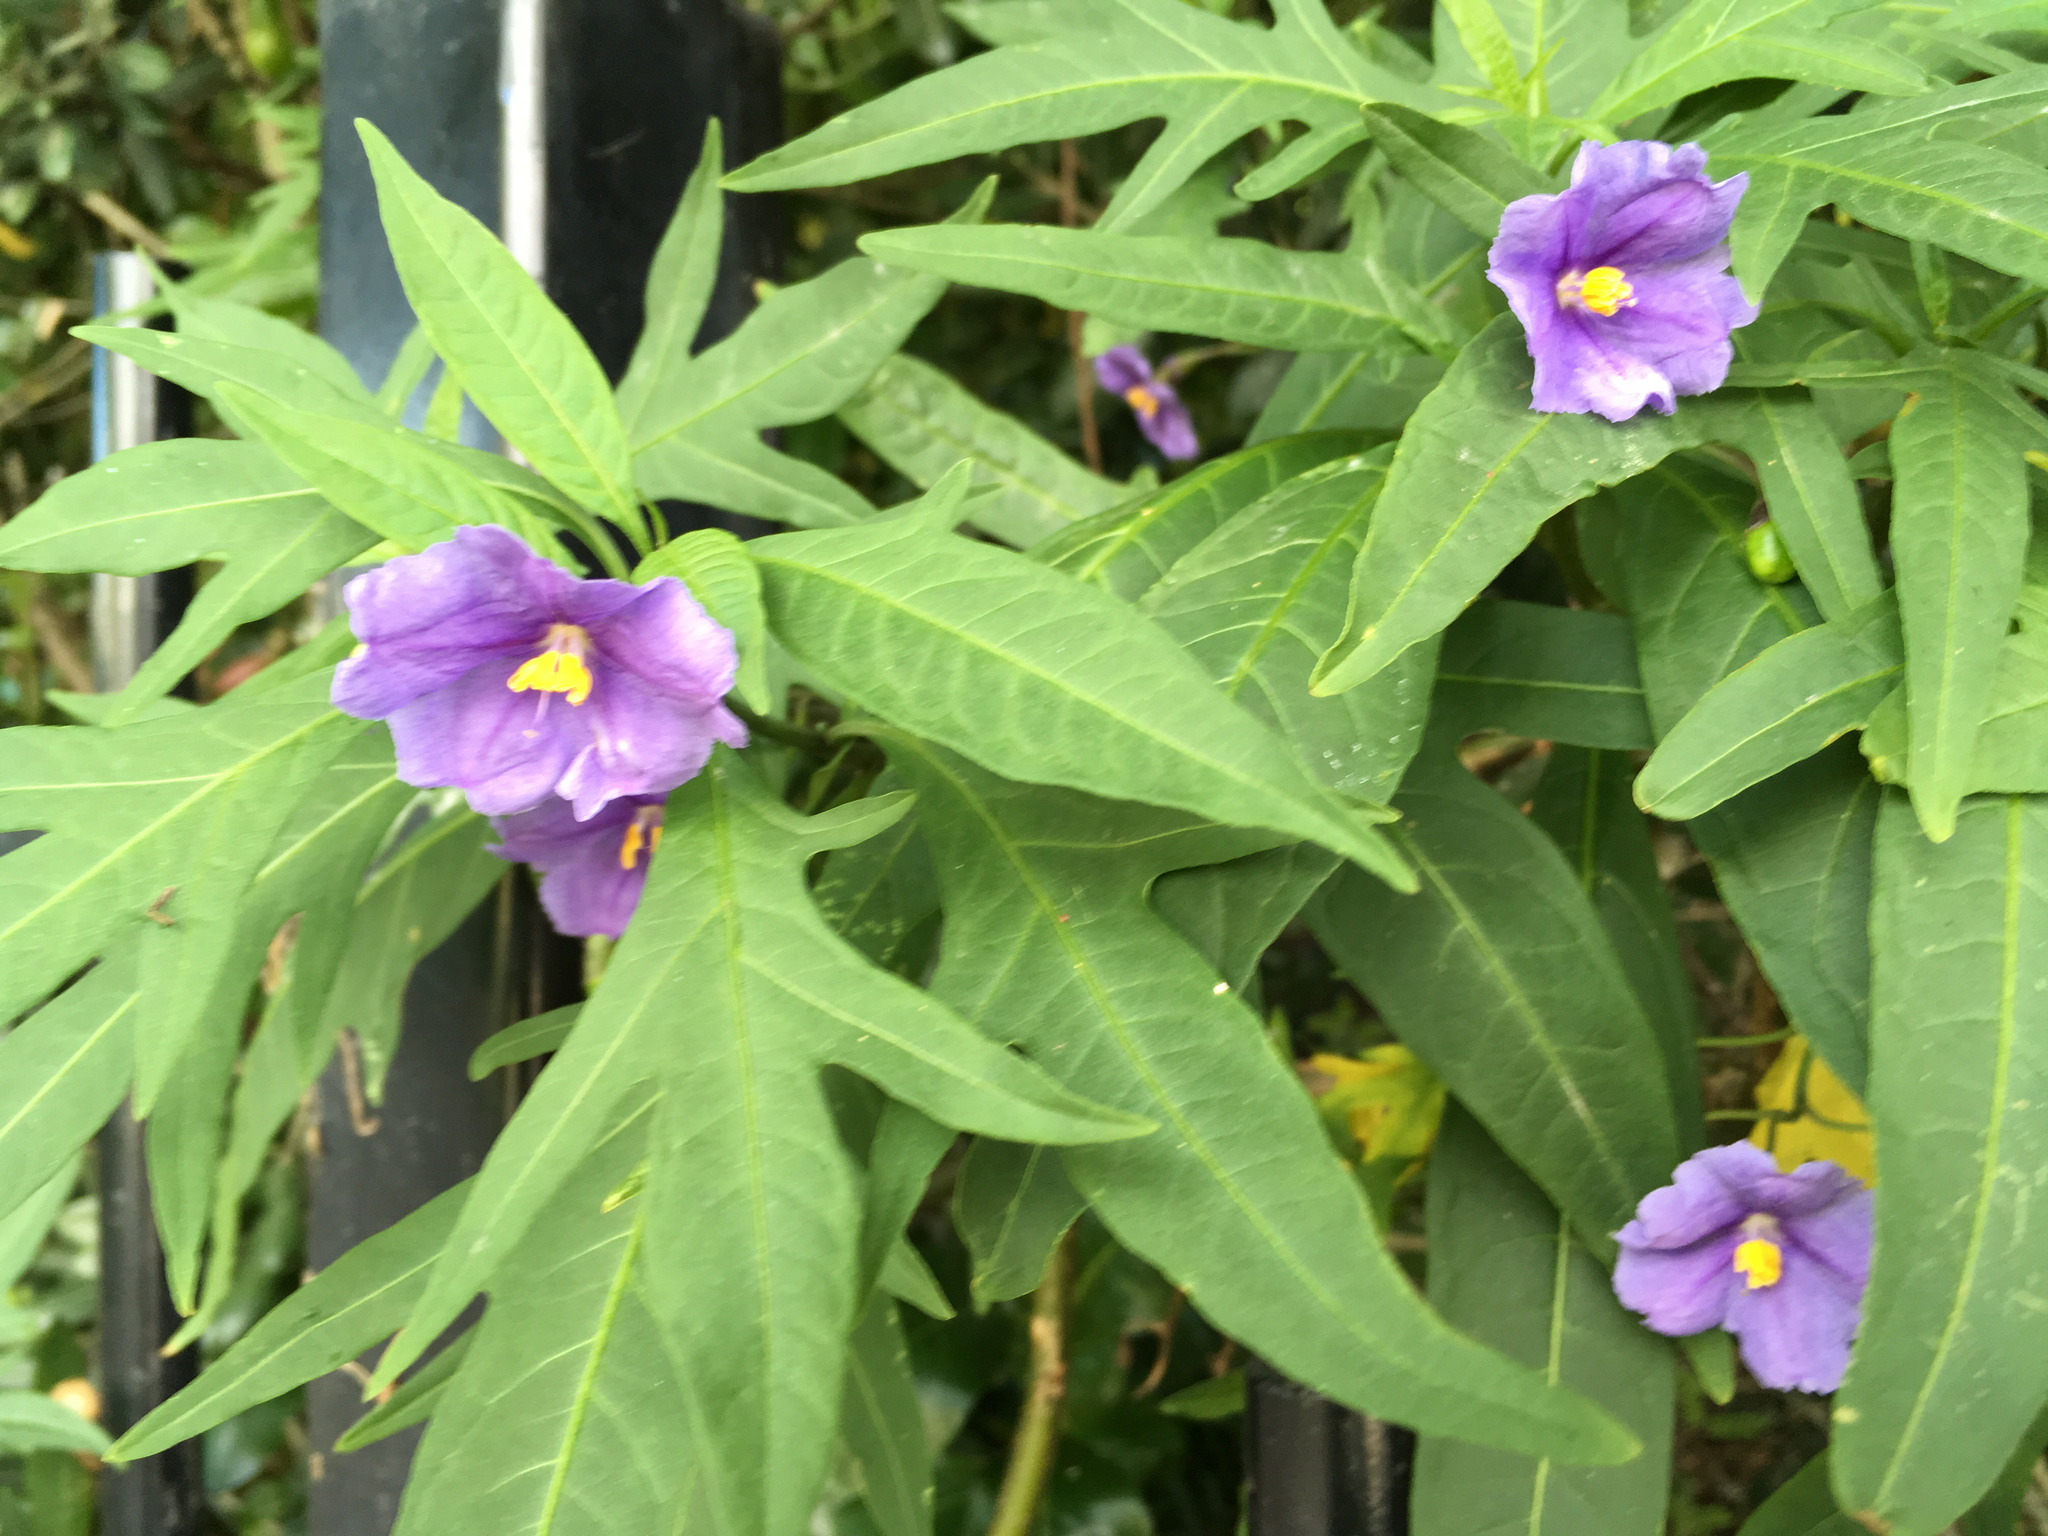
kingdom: Plantae
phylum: Tracheophyta
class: Magnoliopsida
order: Solanales
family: Solanaceae
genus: Solanum
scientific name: Solanum laciniatum
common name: Kangaroo-apple
